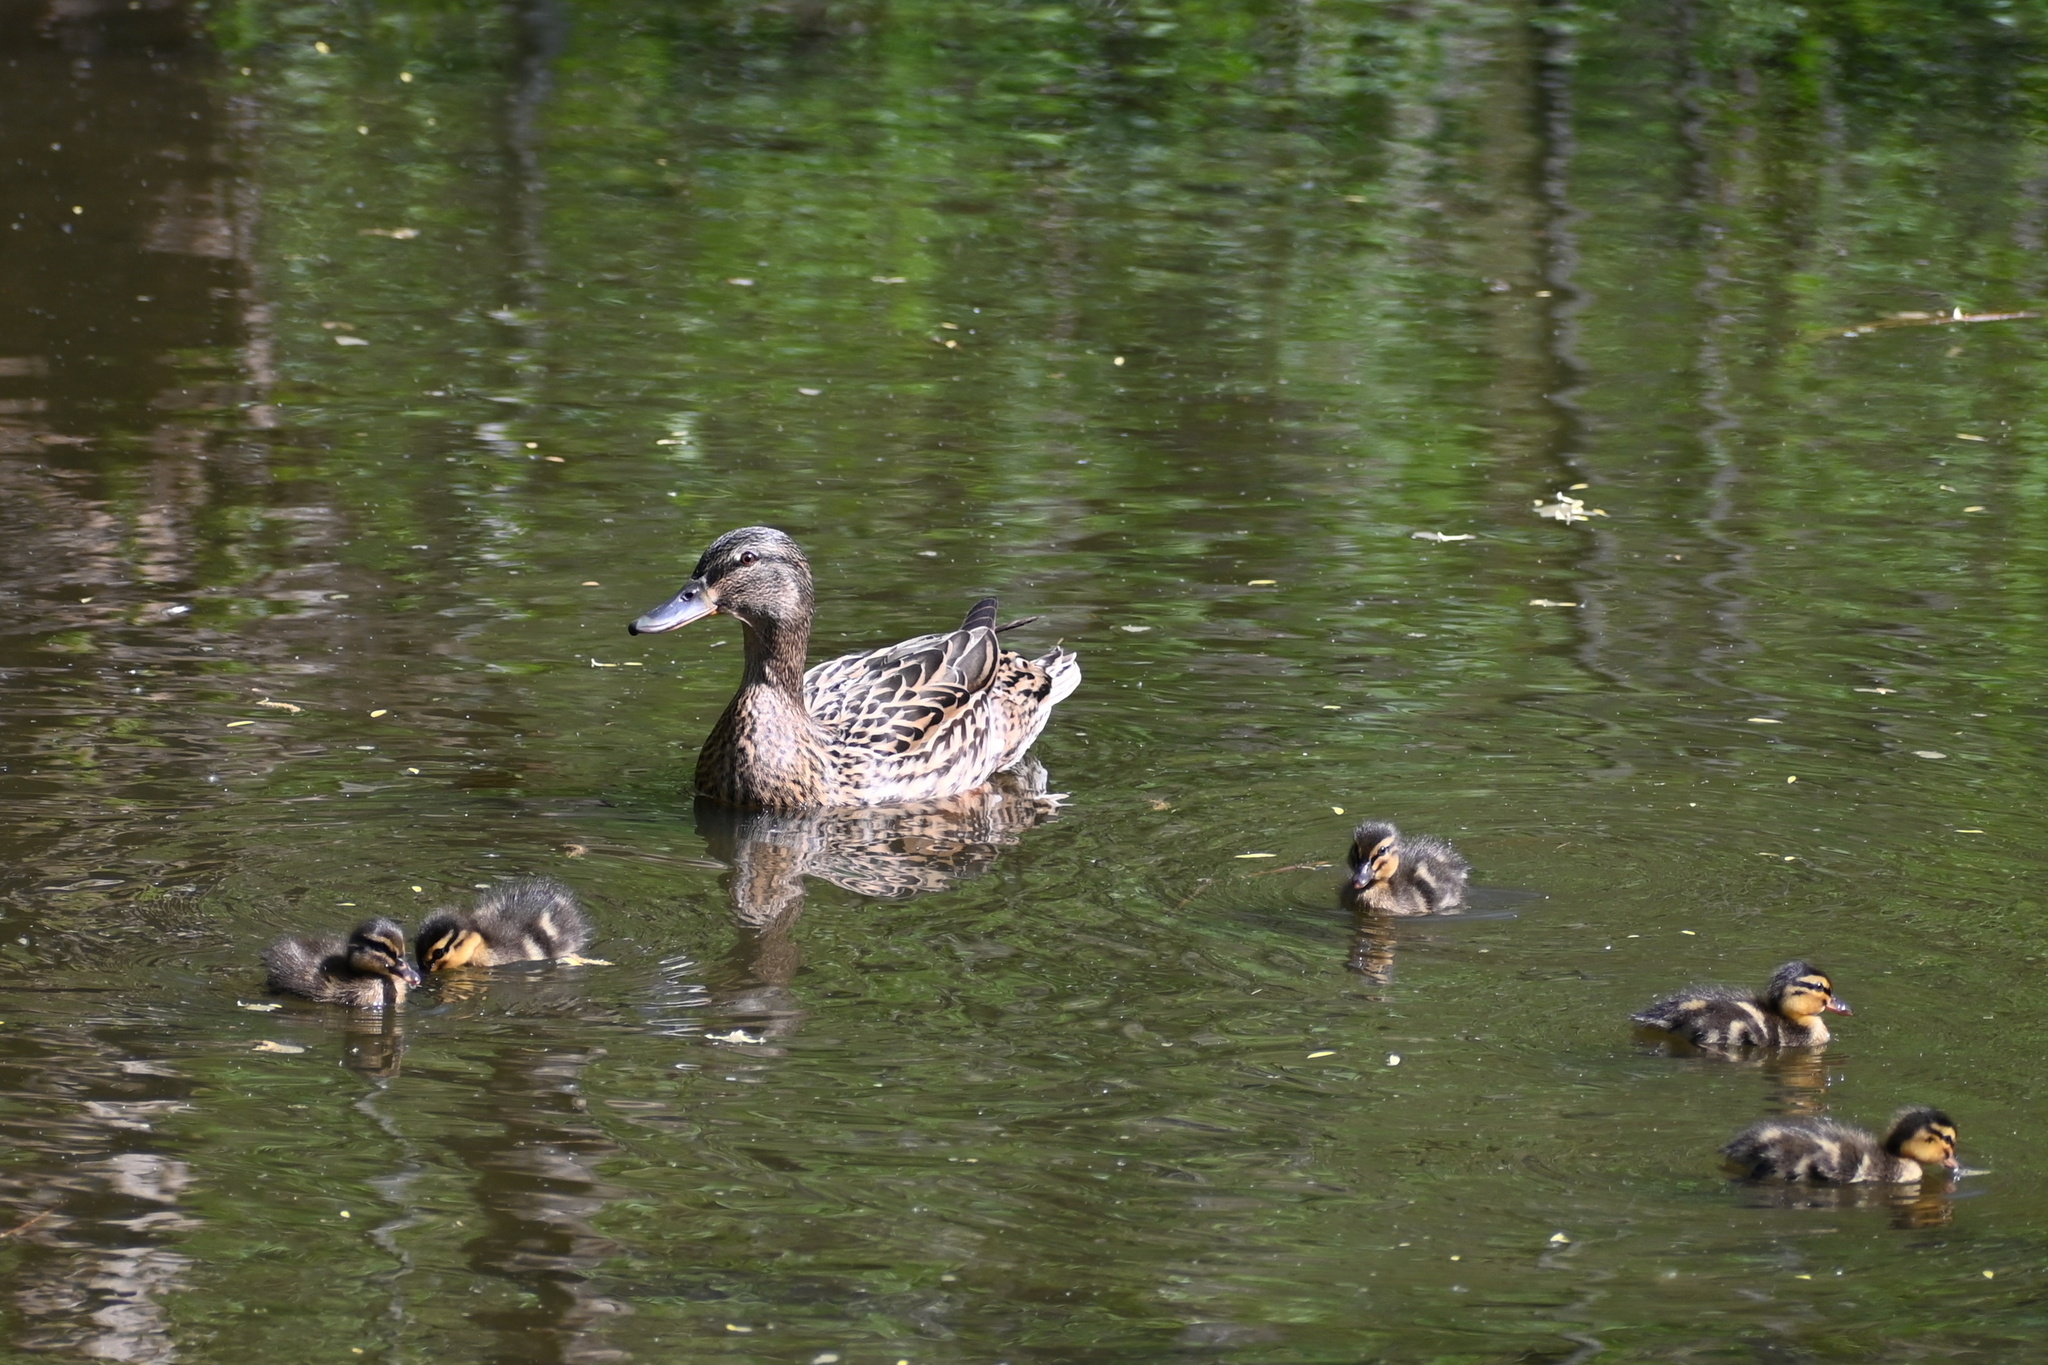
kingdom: Animalia
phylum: Chordata
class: Aves
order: Anseriformes
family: Anatidae
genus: Anas
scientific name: Anas platyrhynchos
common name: Mallard
